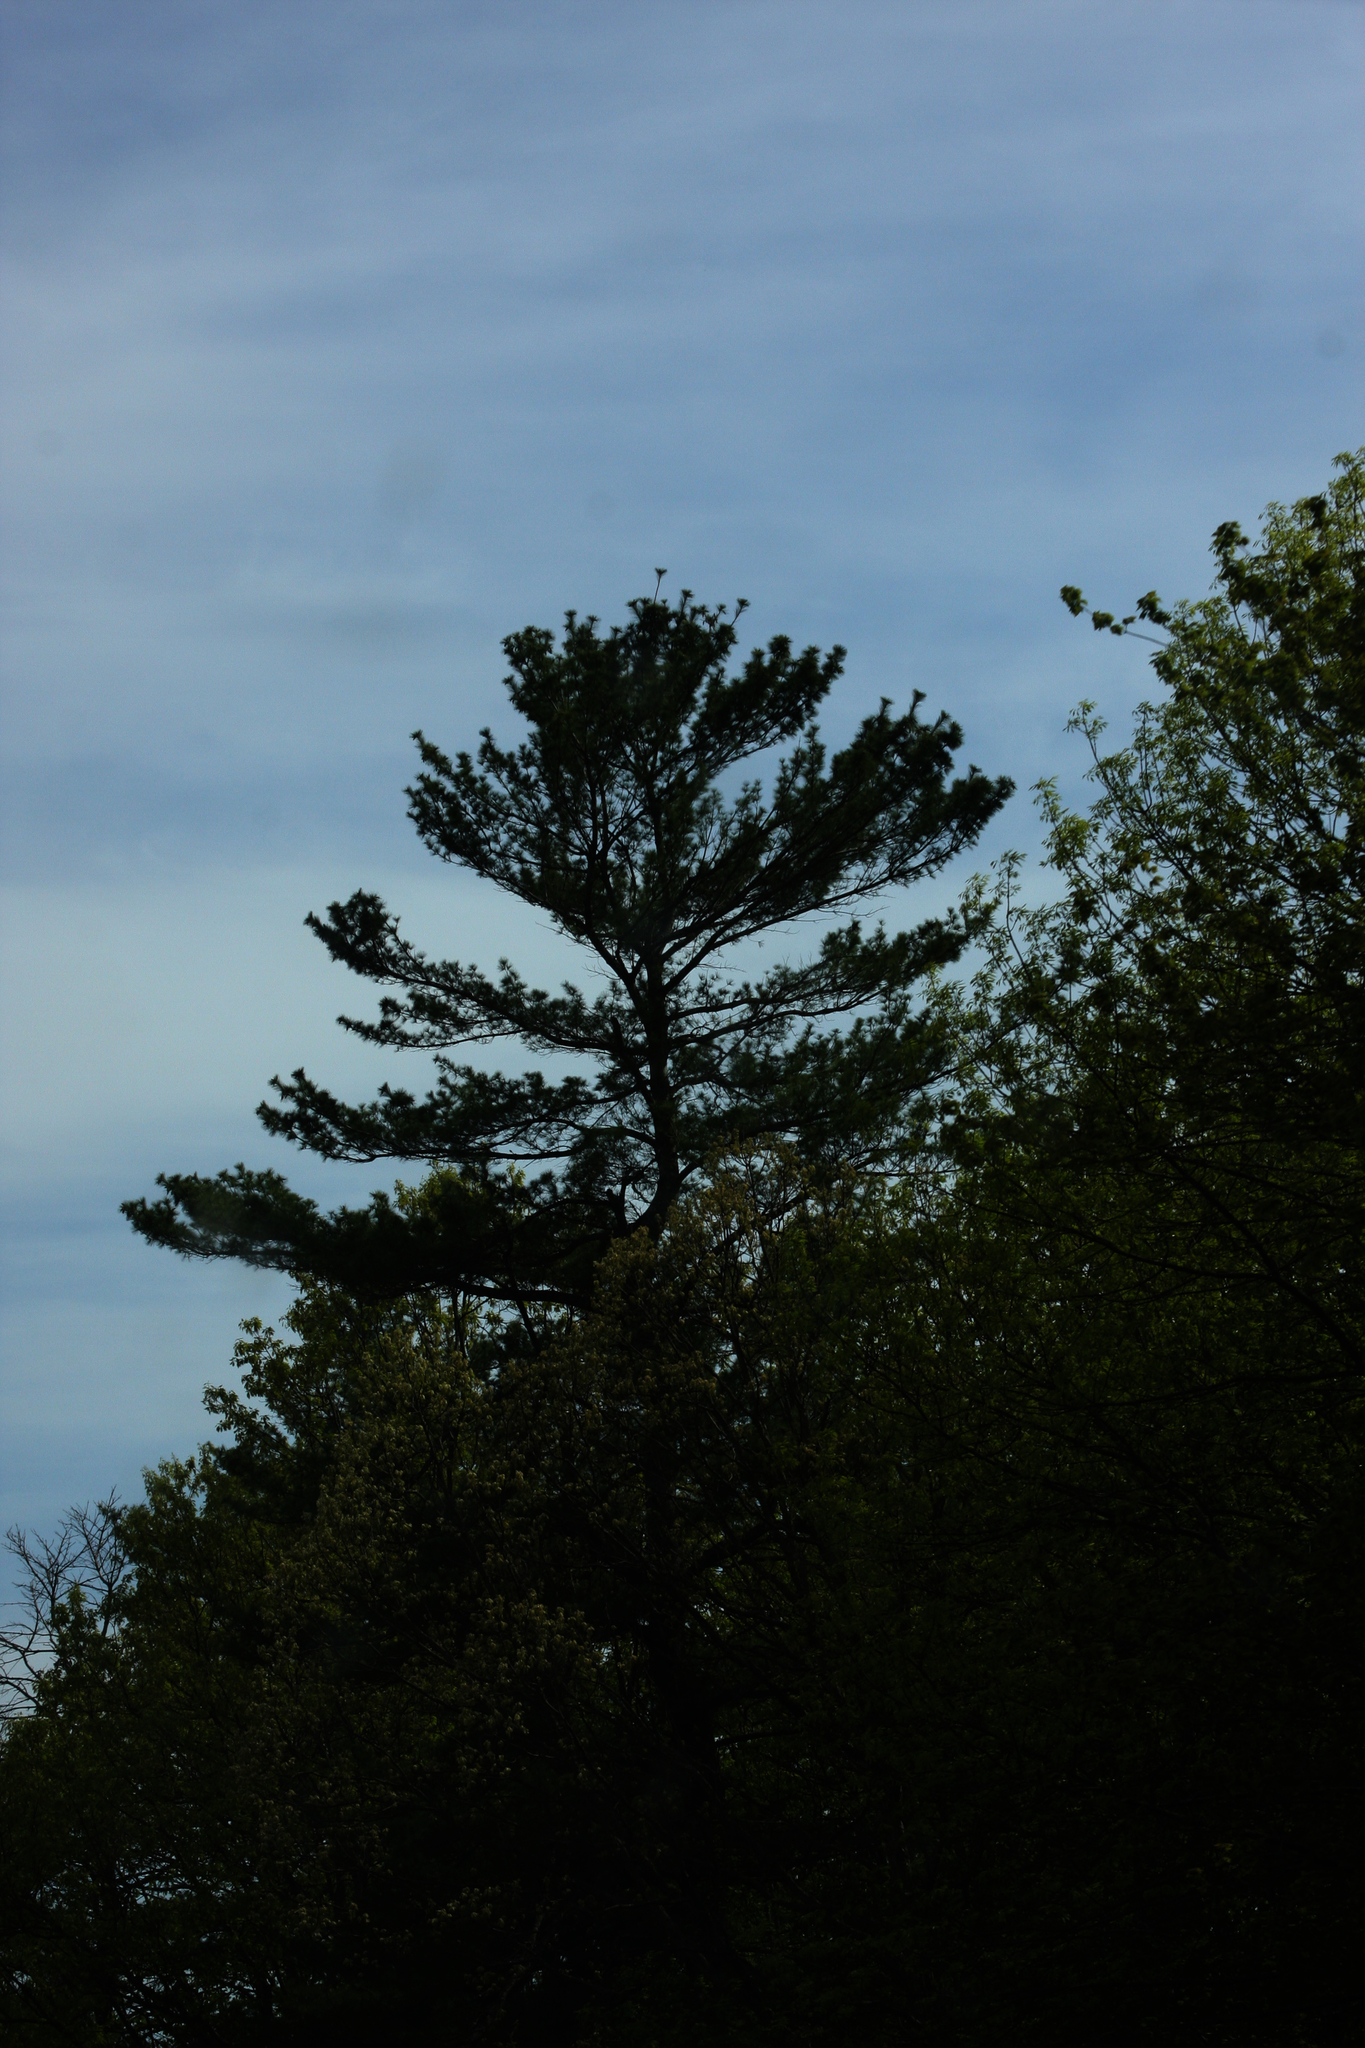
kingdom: Plantae
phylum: Tracheophyta
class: Pinopsida
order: Pinales
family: Pinaceae
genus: Pinus
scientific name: Pinus strobus
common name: Weymouth pine
